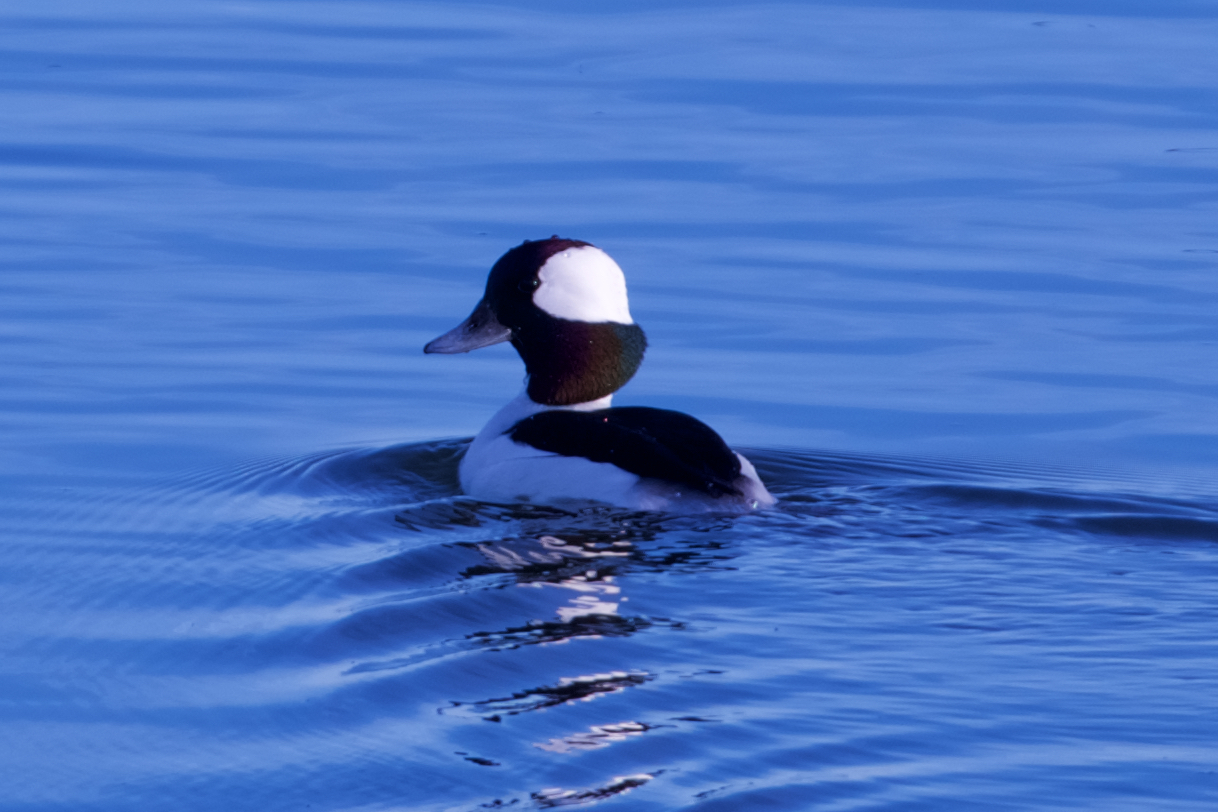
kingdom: Animalia
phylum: Chordata
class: Aves
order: Anseriformes
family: Anatidae
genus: Bucephala
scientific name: Bucephala albeola
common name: Bufflehead
